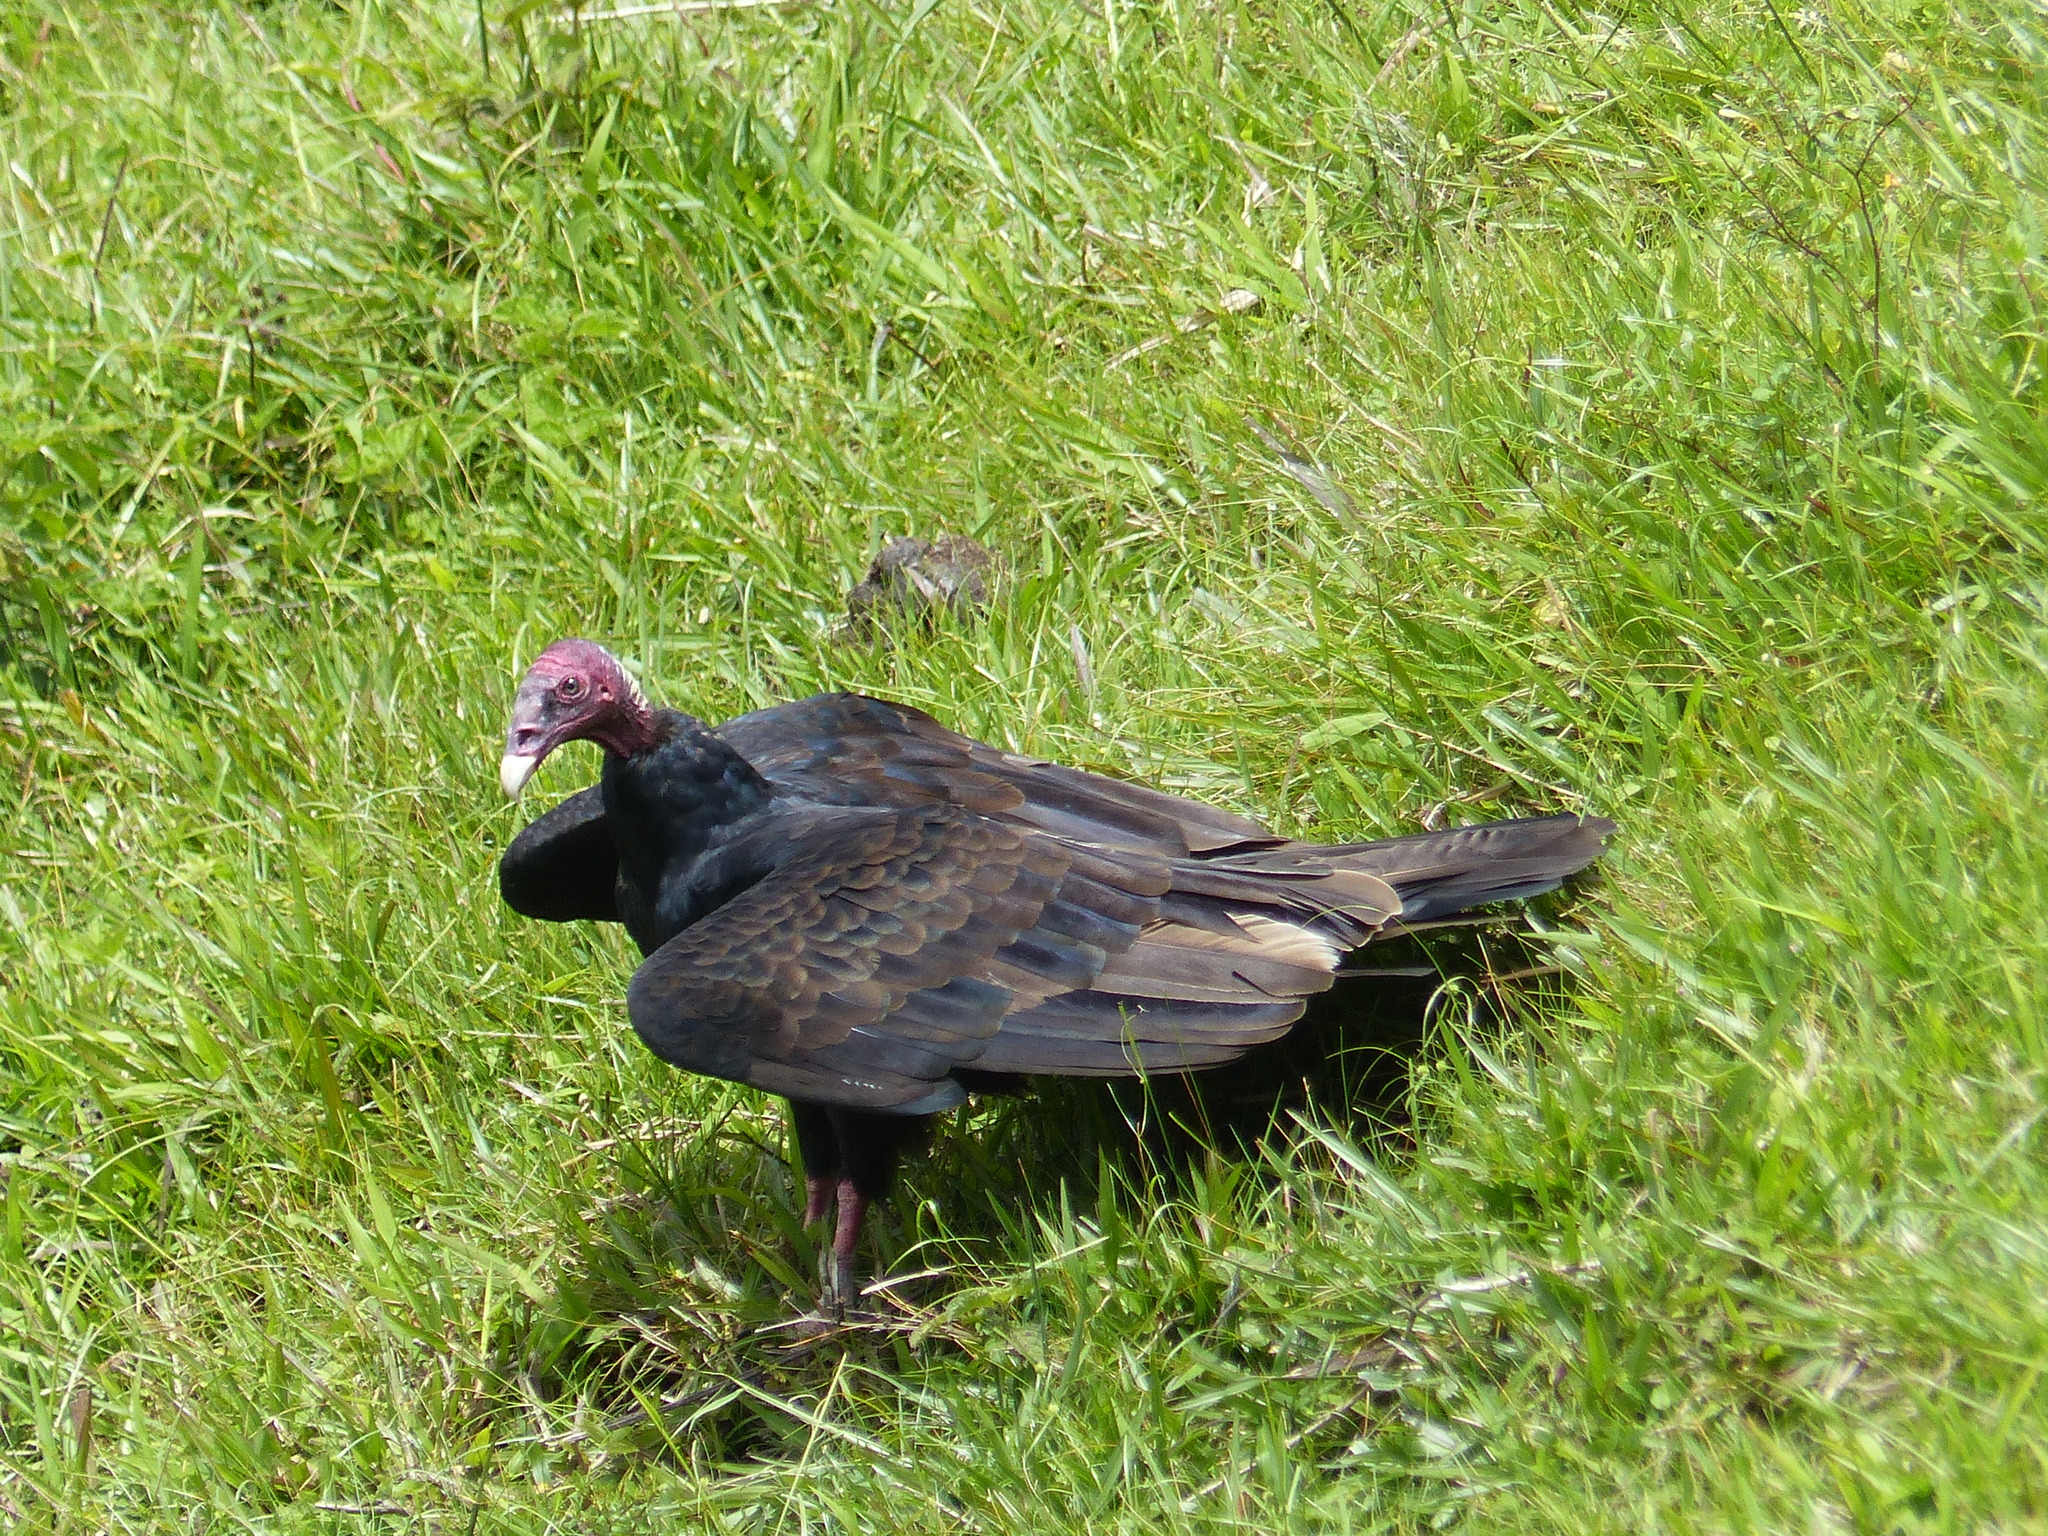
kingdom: Animalia
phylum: Chordata
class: Aves
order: Accipitriformes
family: Cathartidae
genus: Cathartes
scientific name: Cathartes aura
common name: Turkey vulture
